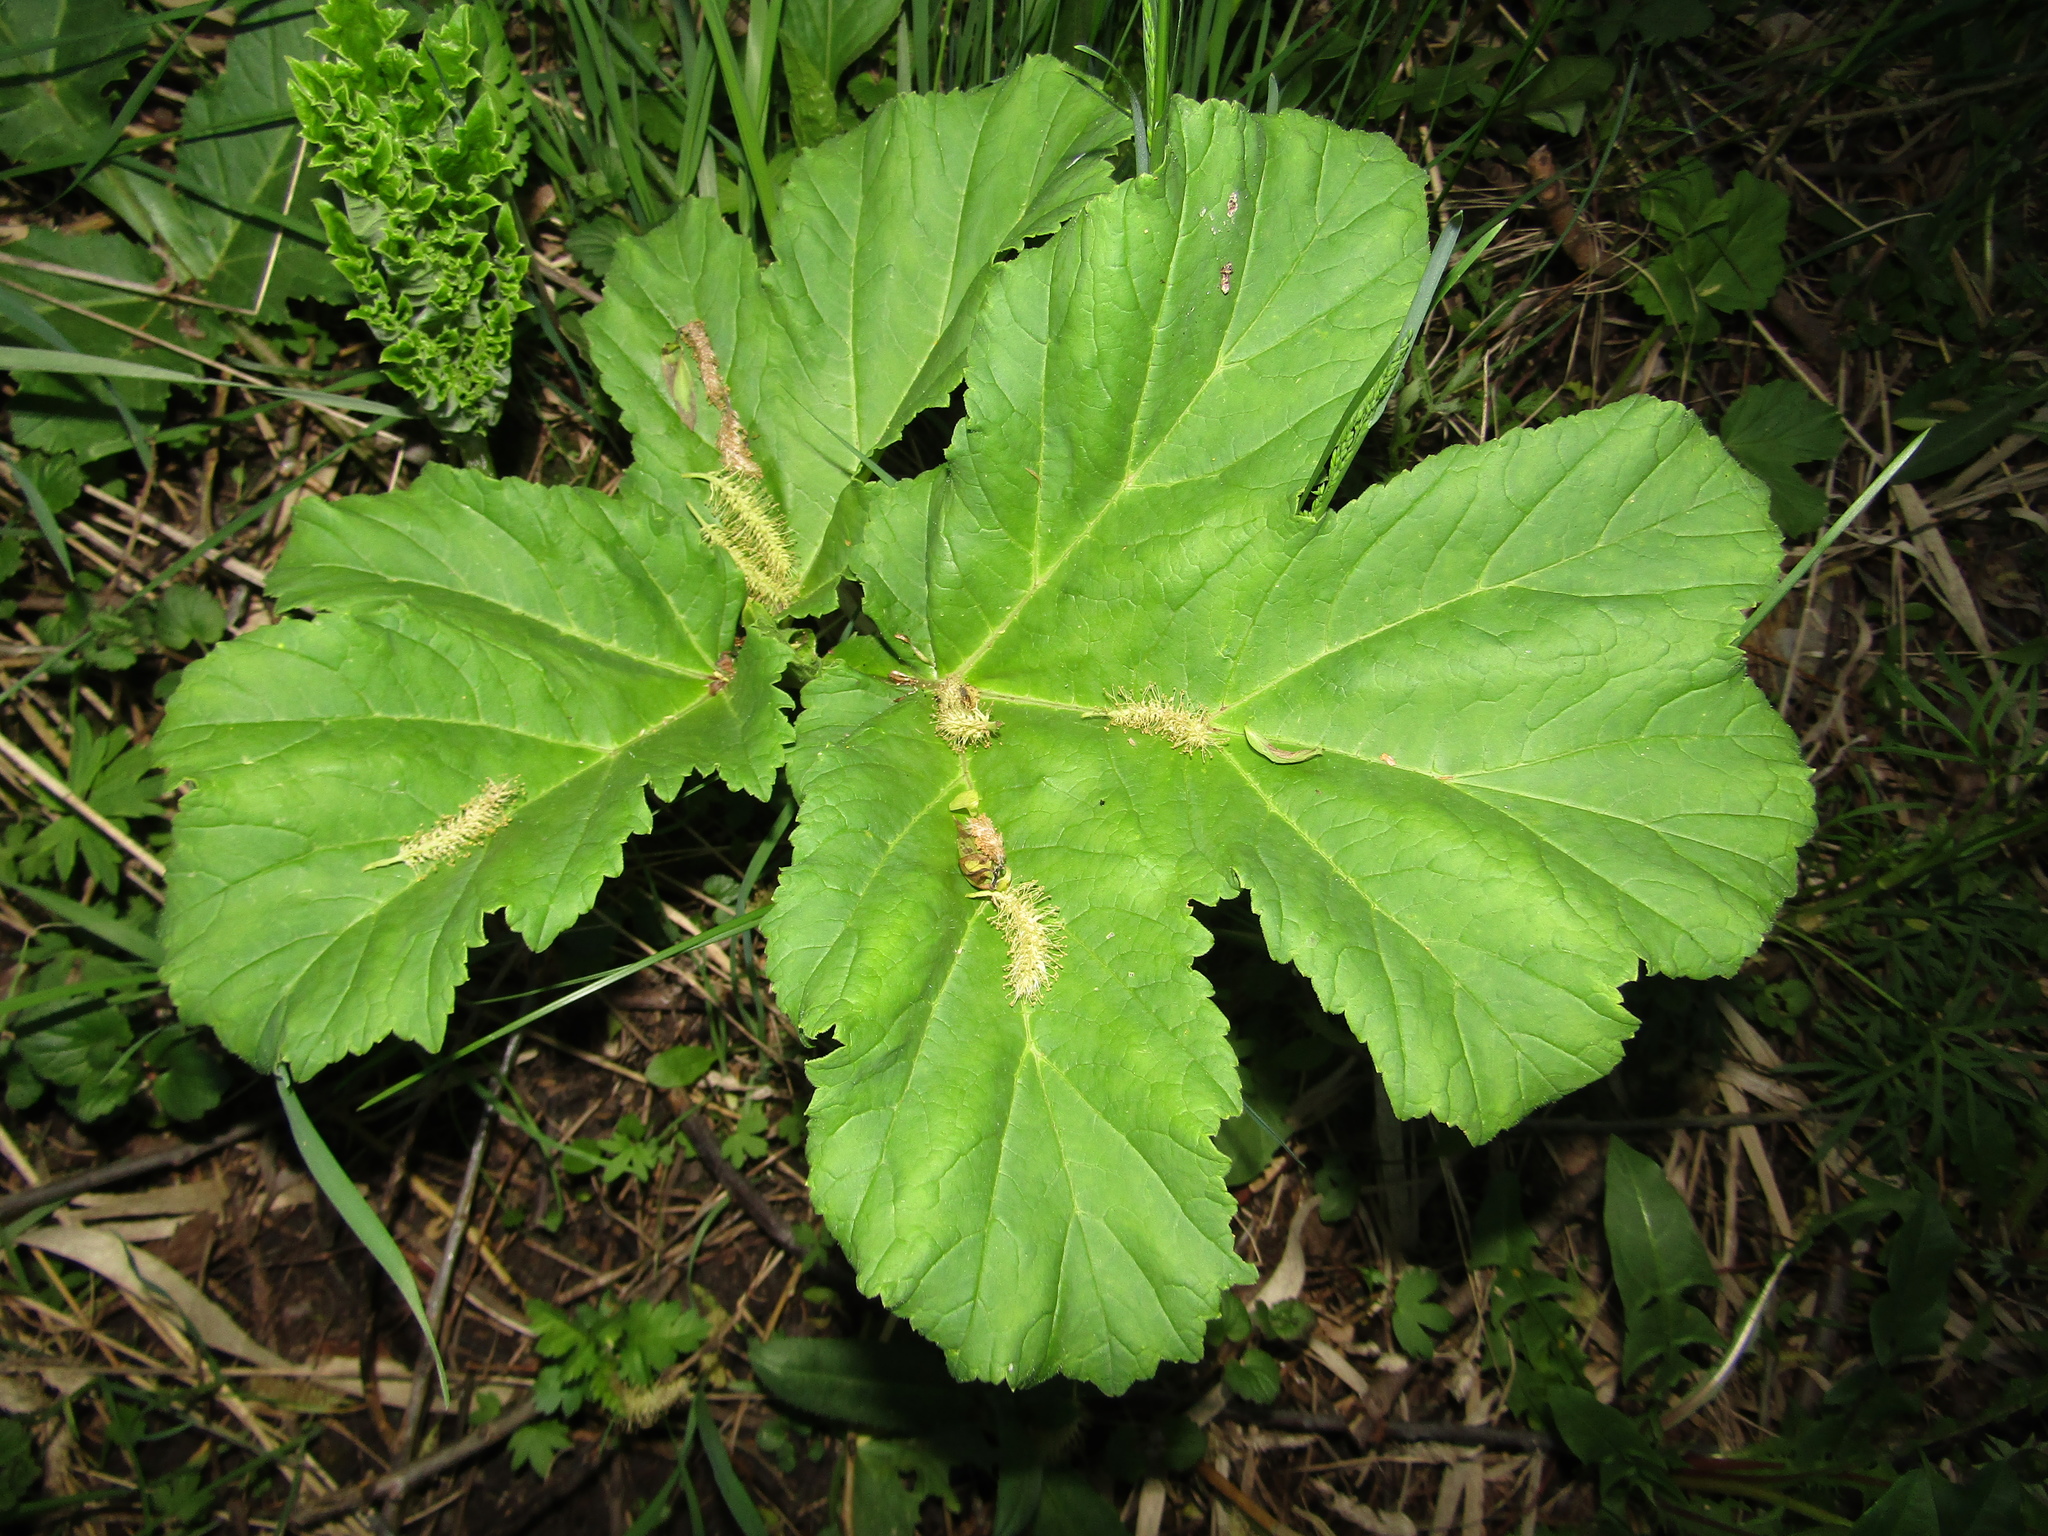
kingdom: Plantae
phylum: Tracheophyta
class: Magnoliopsida
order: Apiales
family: Apiaceae
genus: Heracleum
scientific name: Heracleum sosnowskyi
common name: Sosnowsky's hogweed
